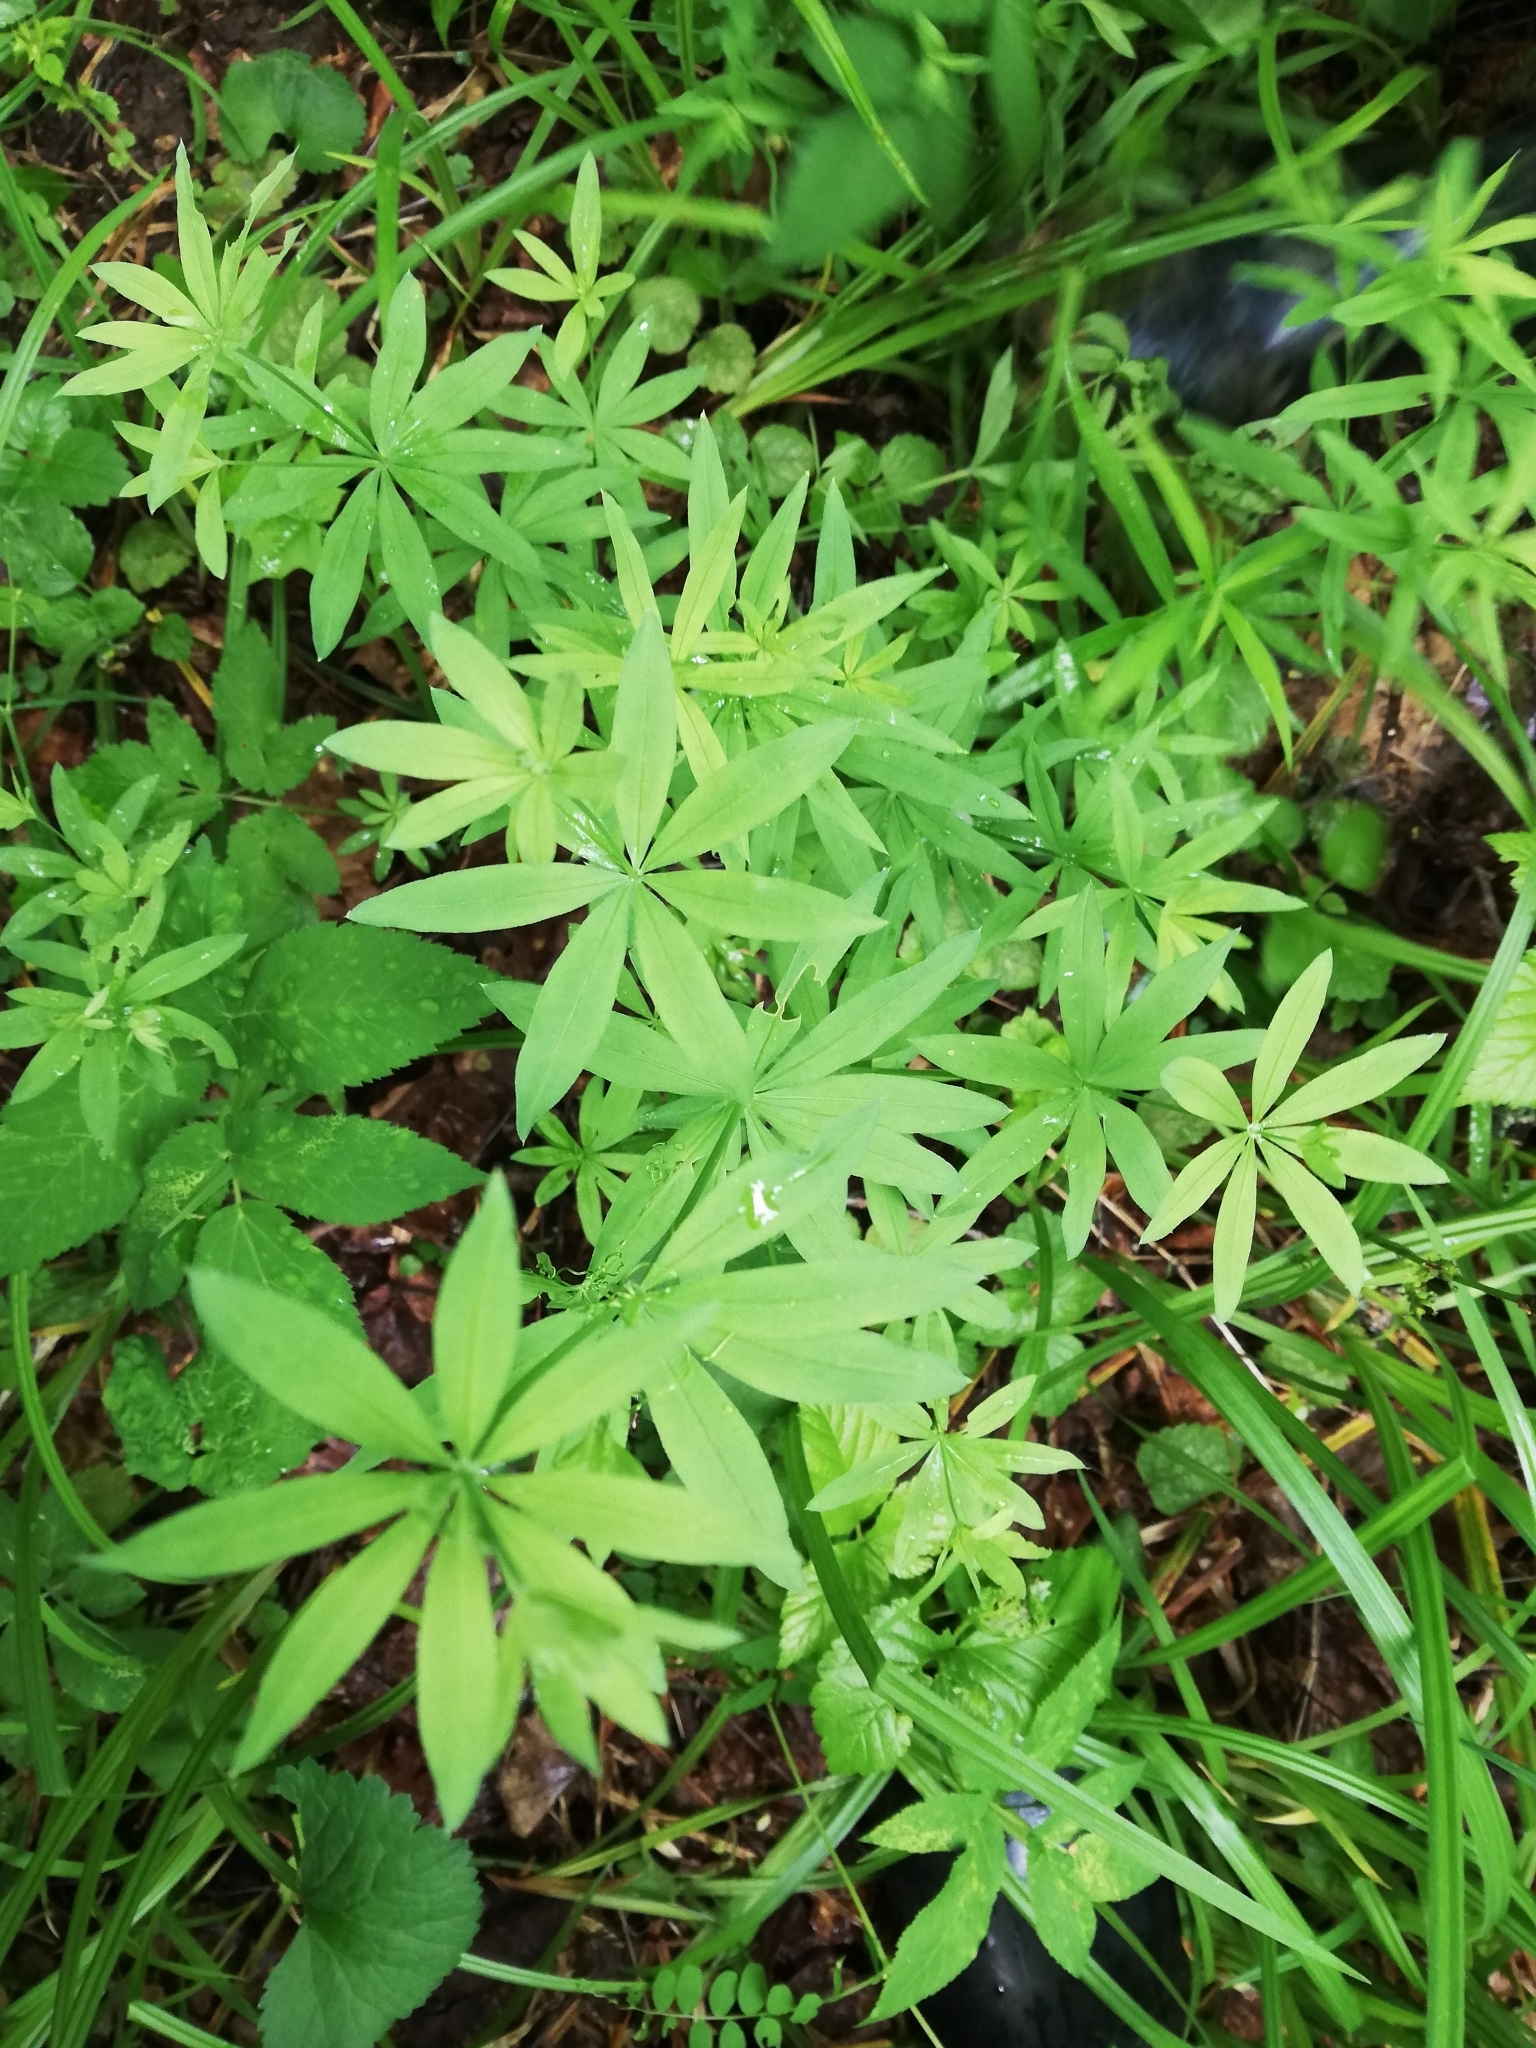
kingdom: Plantae
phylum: Tracheophyta
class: Magnoliopsida
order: Gentianales
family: Rubiaceae
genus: Galium
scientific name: Galium intermedium
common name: Bedstraw
